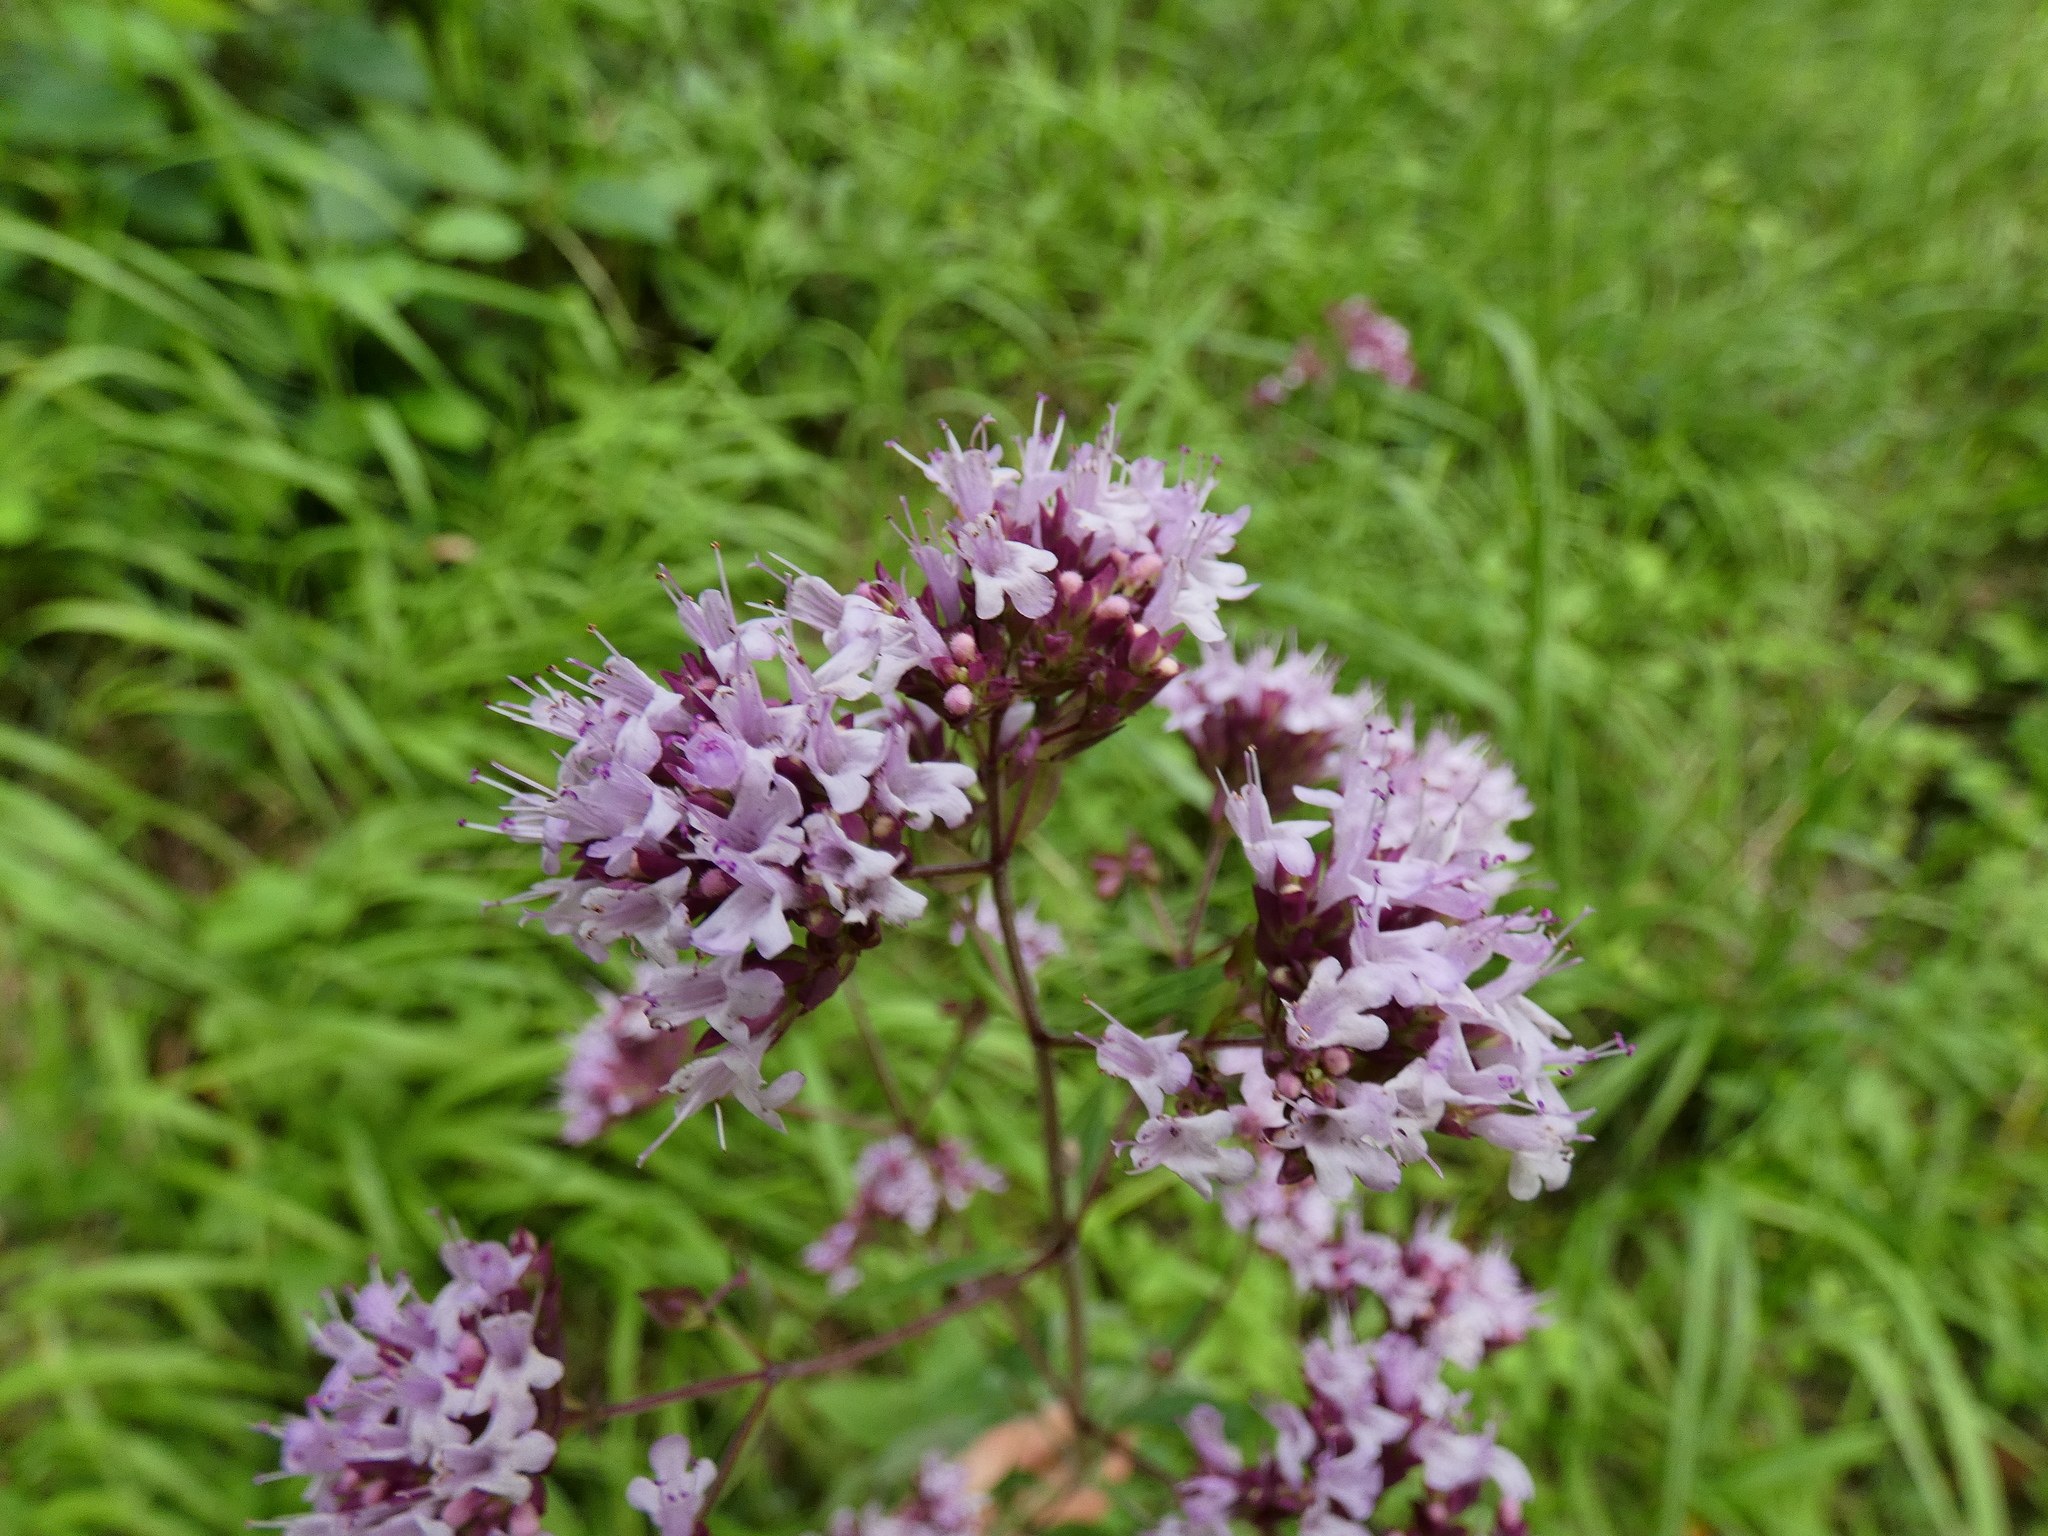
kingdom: Plantae
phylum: Tracheophyta
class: Magnoliopsida
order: Lamiales
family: Lamiaceae
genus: Origanum
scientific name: Origanum vulgare
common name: Wild marjoram
